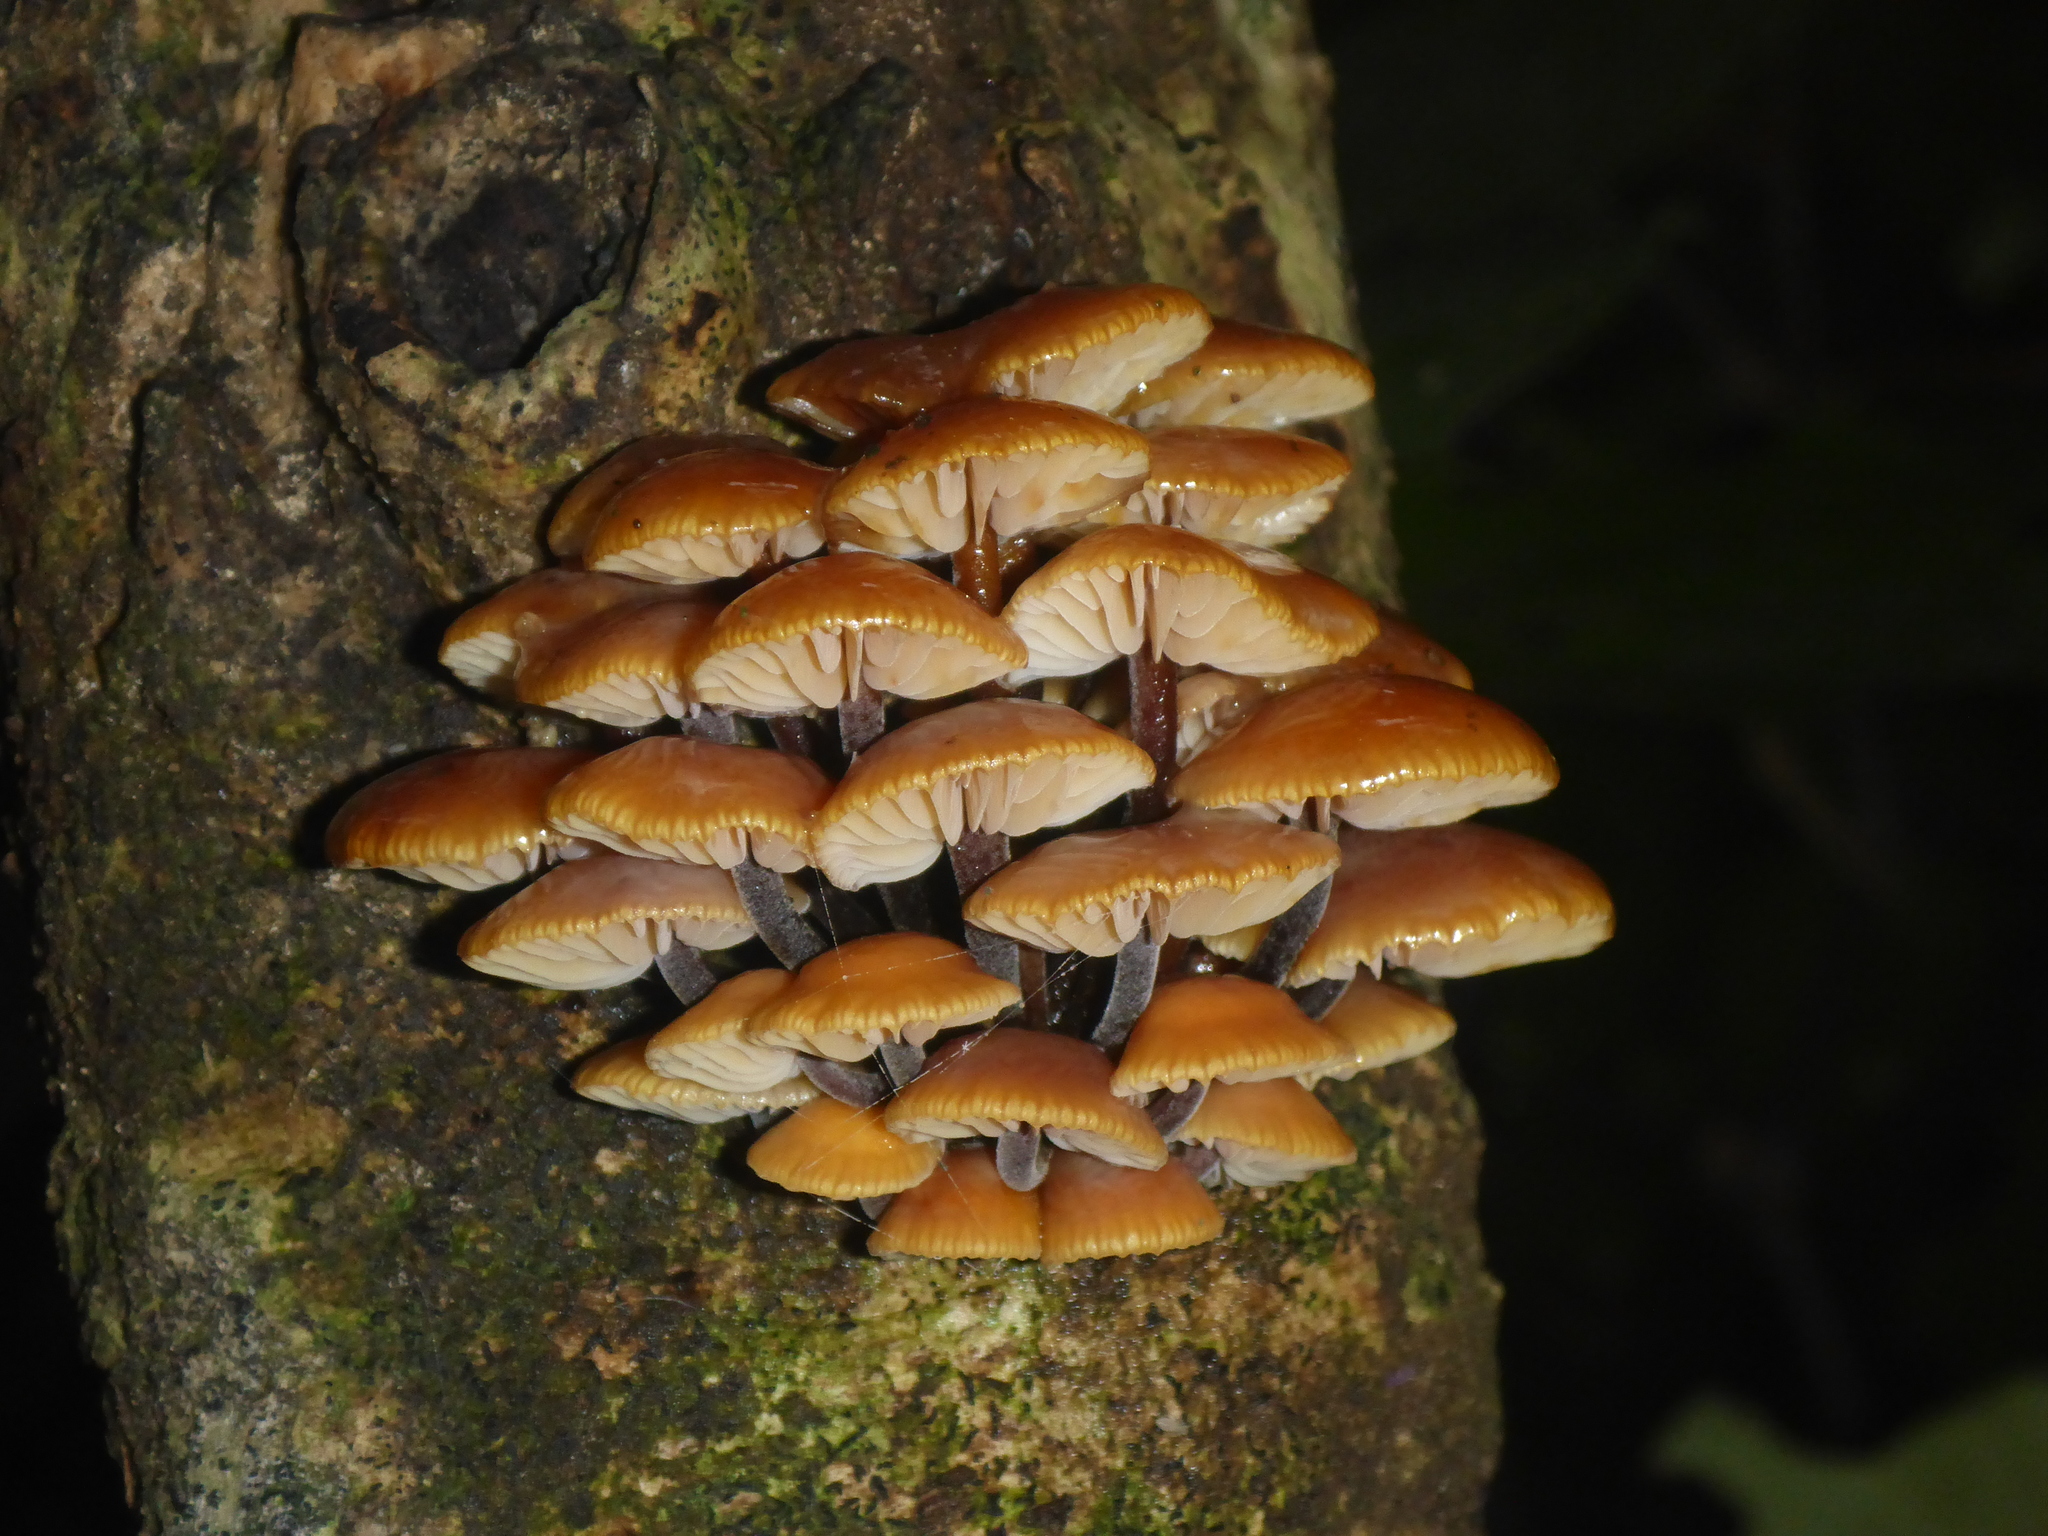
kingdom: Fungi
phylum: Basidiomycota
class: Agaricomycetes
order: Agaricales
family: Physalacriaceae
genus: Flammulina
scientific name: Flammulina velutipes
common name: Velvet shank
